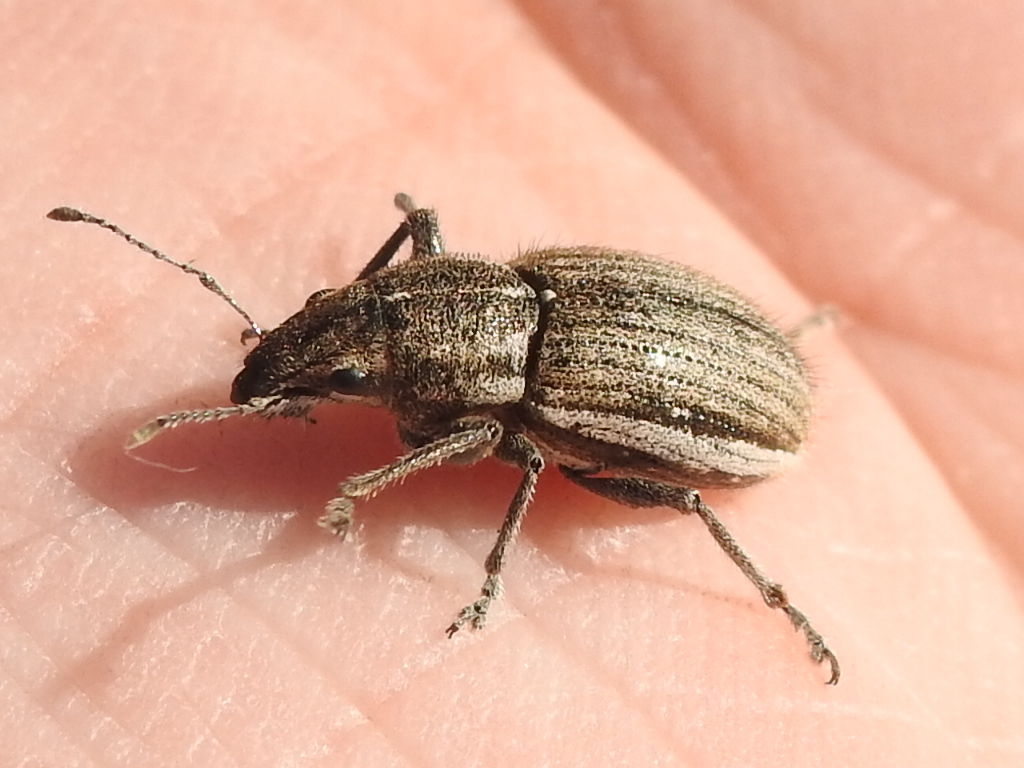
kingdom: Animalia
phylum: Arthropoda
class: Insecta
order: Coleoptera
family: Curculionidae
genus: Naupactus
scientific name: Naupactus leucoloma
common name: Whitefringed beetle
